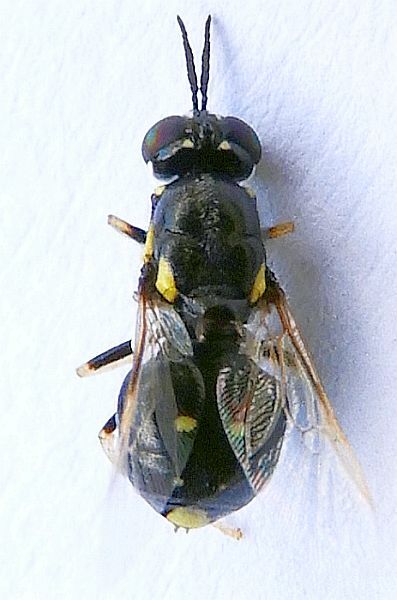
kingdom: Animalia
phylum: Arthropoda
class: Insecta
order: Diptera
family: Stratiomyidae
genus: Caloparyphus
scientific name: Caloparyphus tetraspilus
